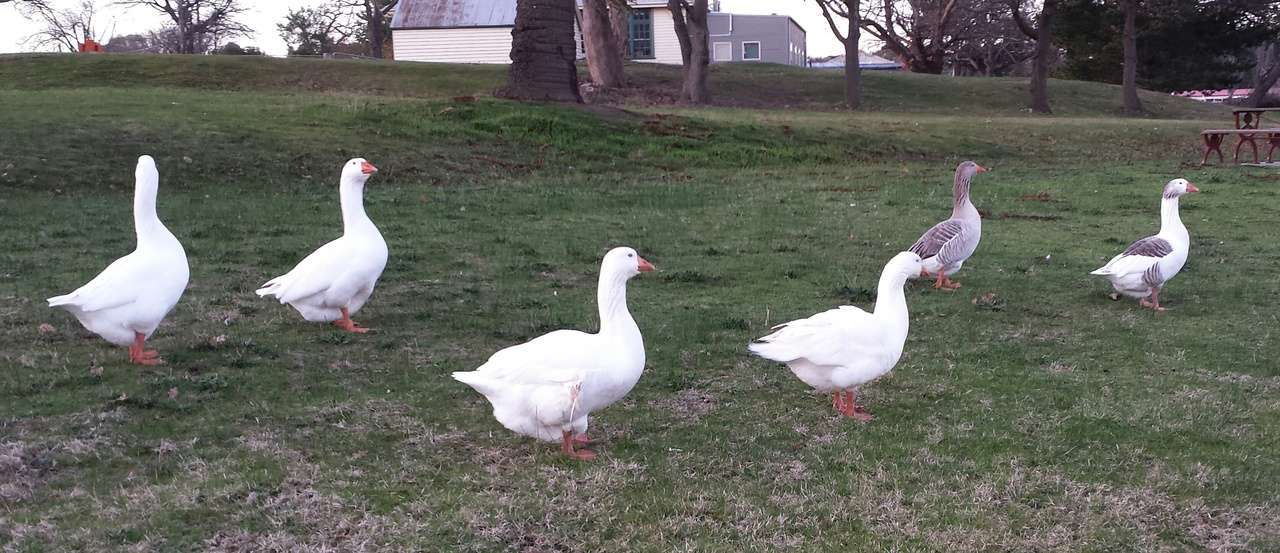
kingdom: Animalia
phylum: Chordata
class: Aves
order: Anseriformes
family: Anatidae
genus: Anser
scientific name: Anser anser
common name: Greylag goose
